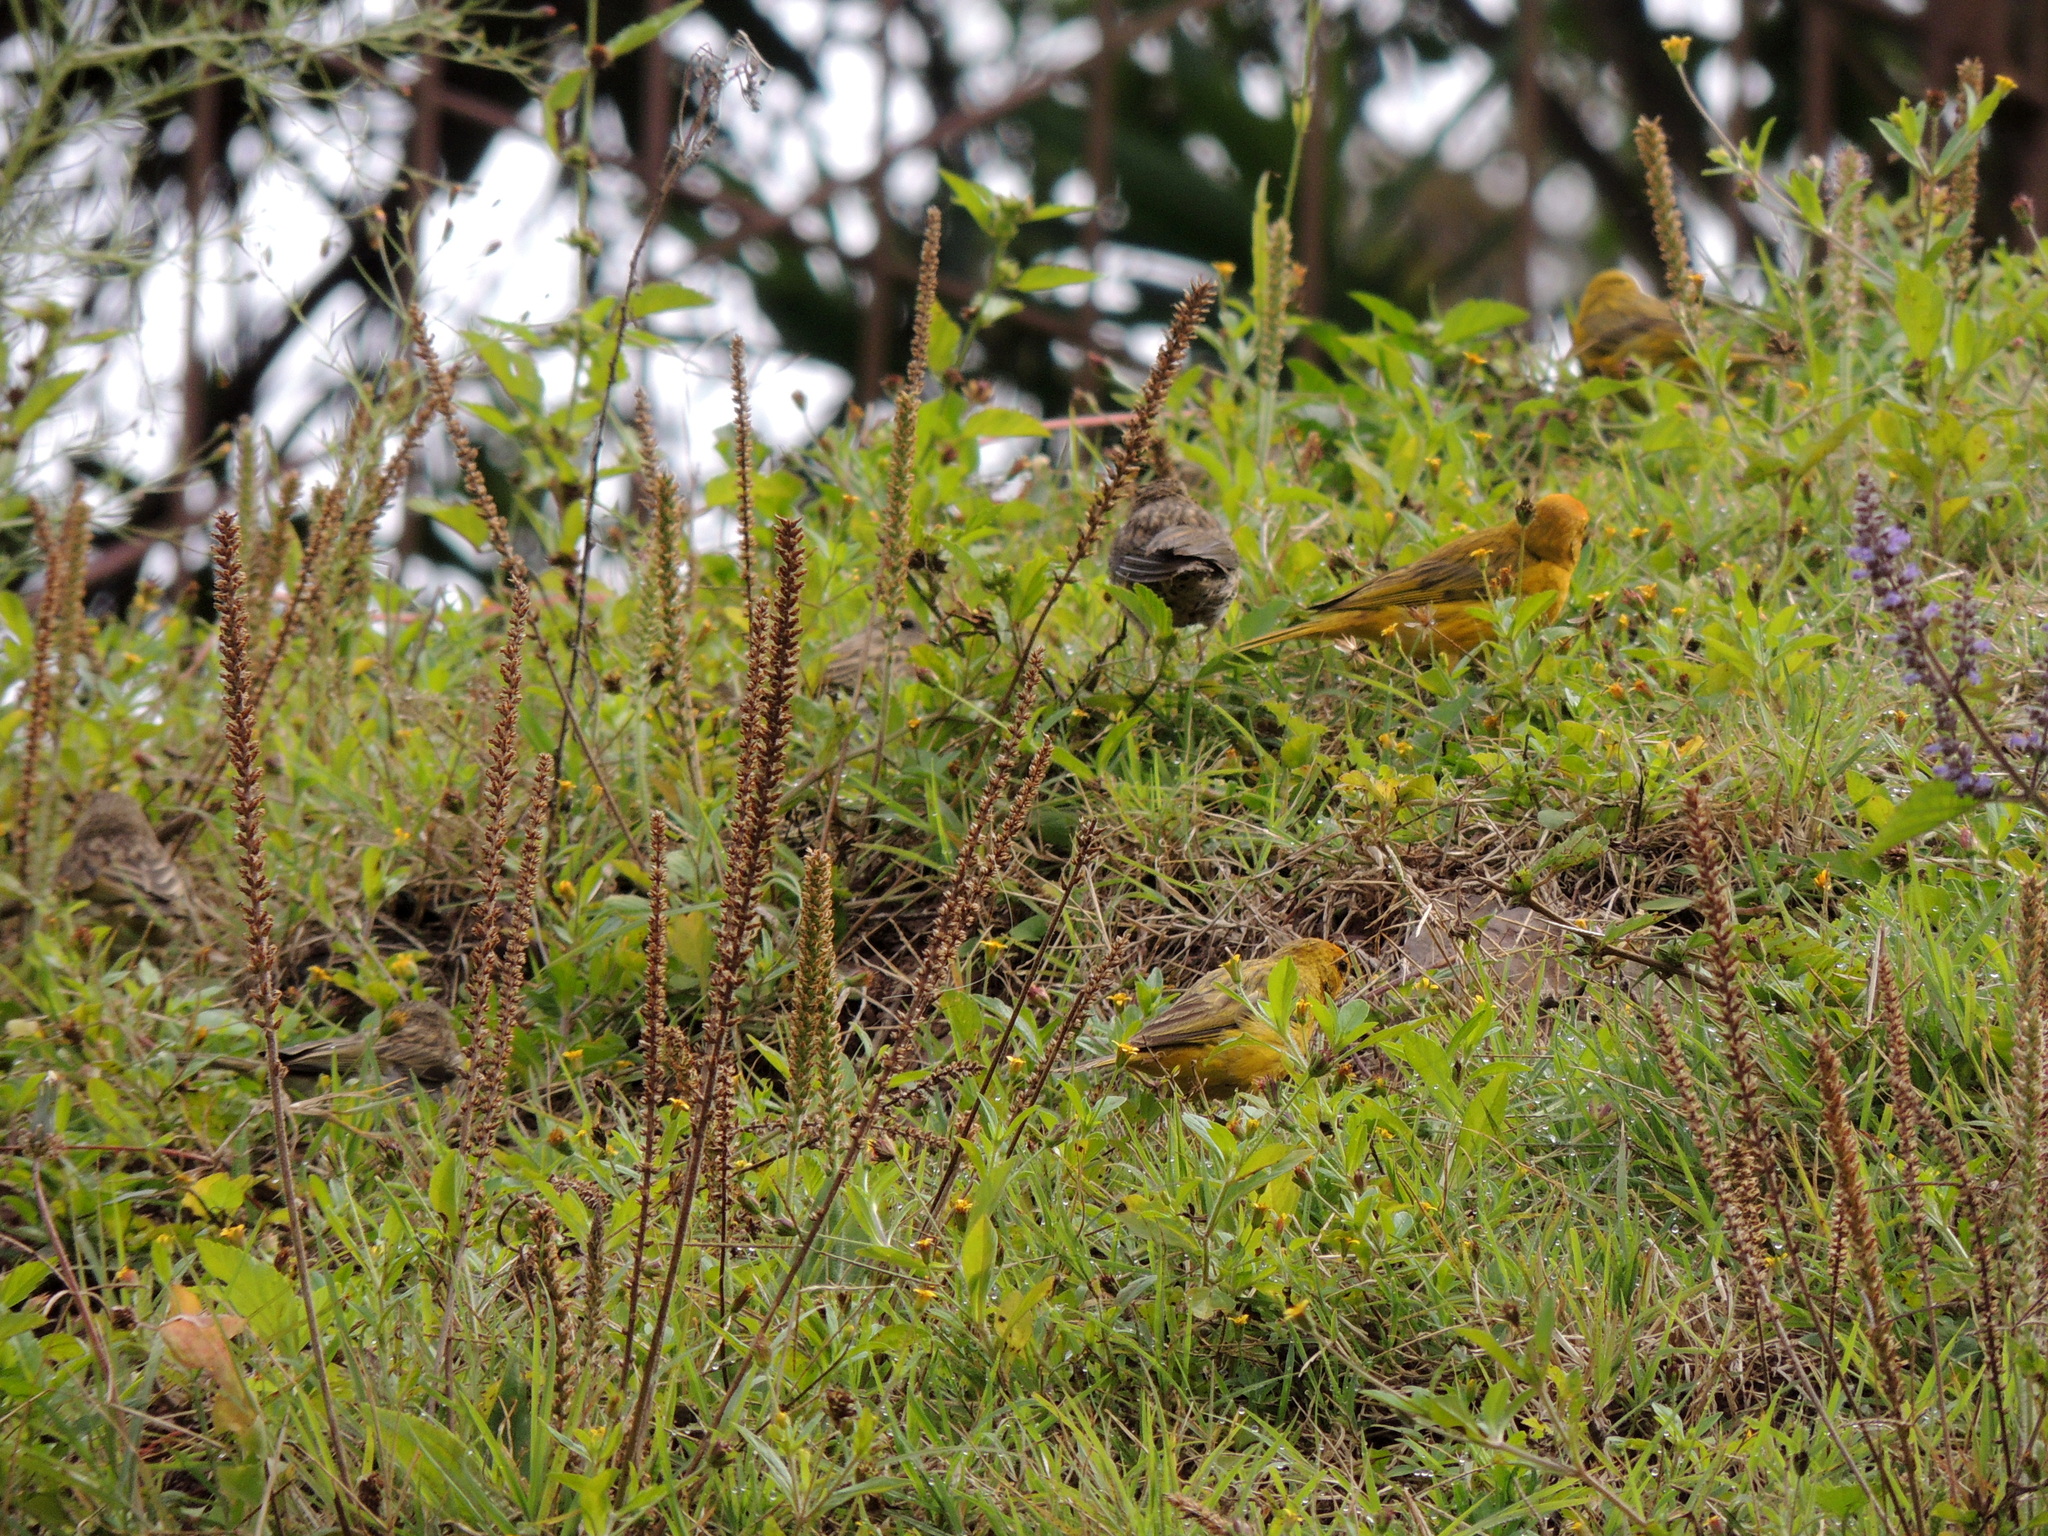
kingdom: Animalia
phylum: Chordata
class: Aves
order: Passeriformes
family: Thraupidae
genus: Sicalis
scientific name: Sicalis flaveola
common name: Saffron finch
